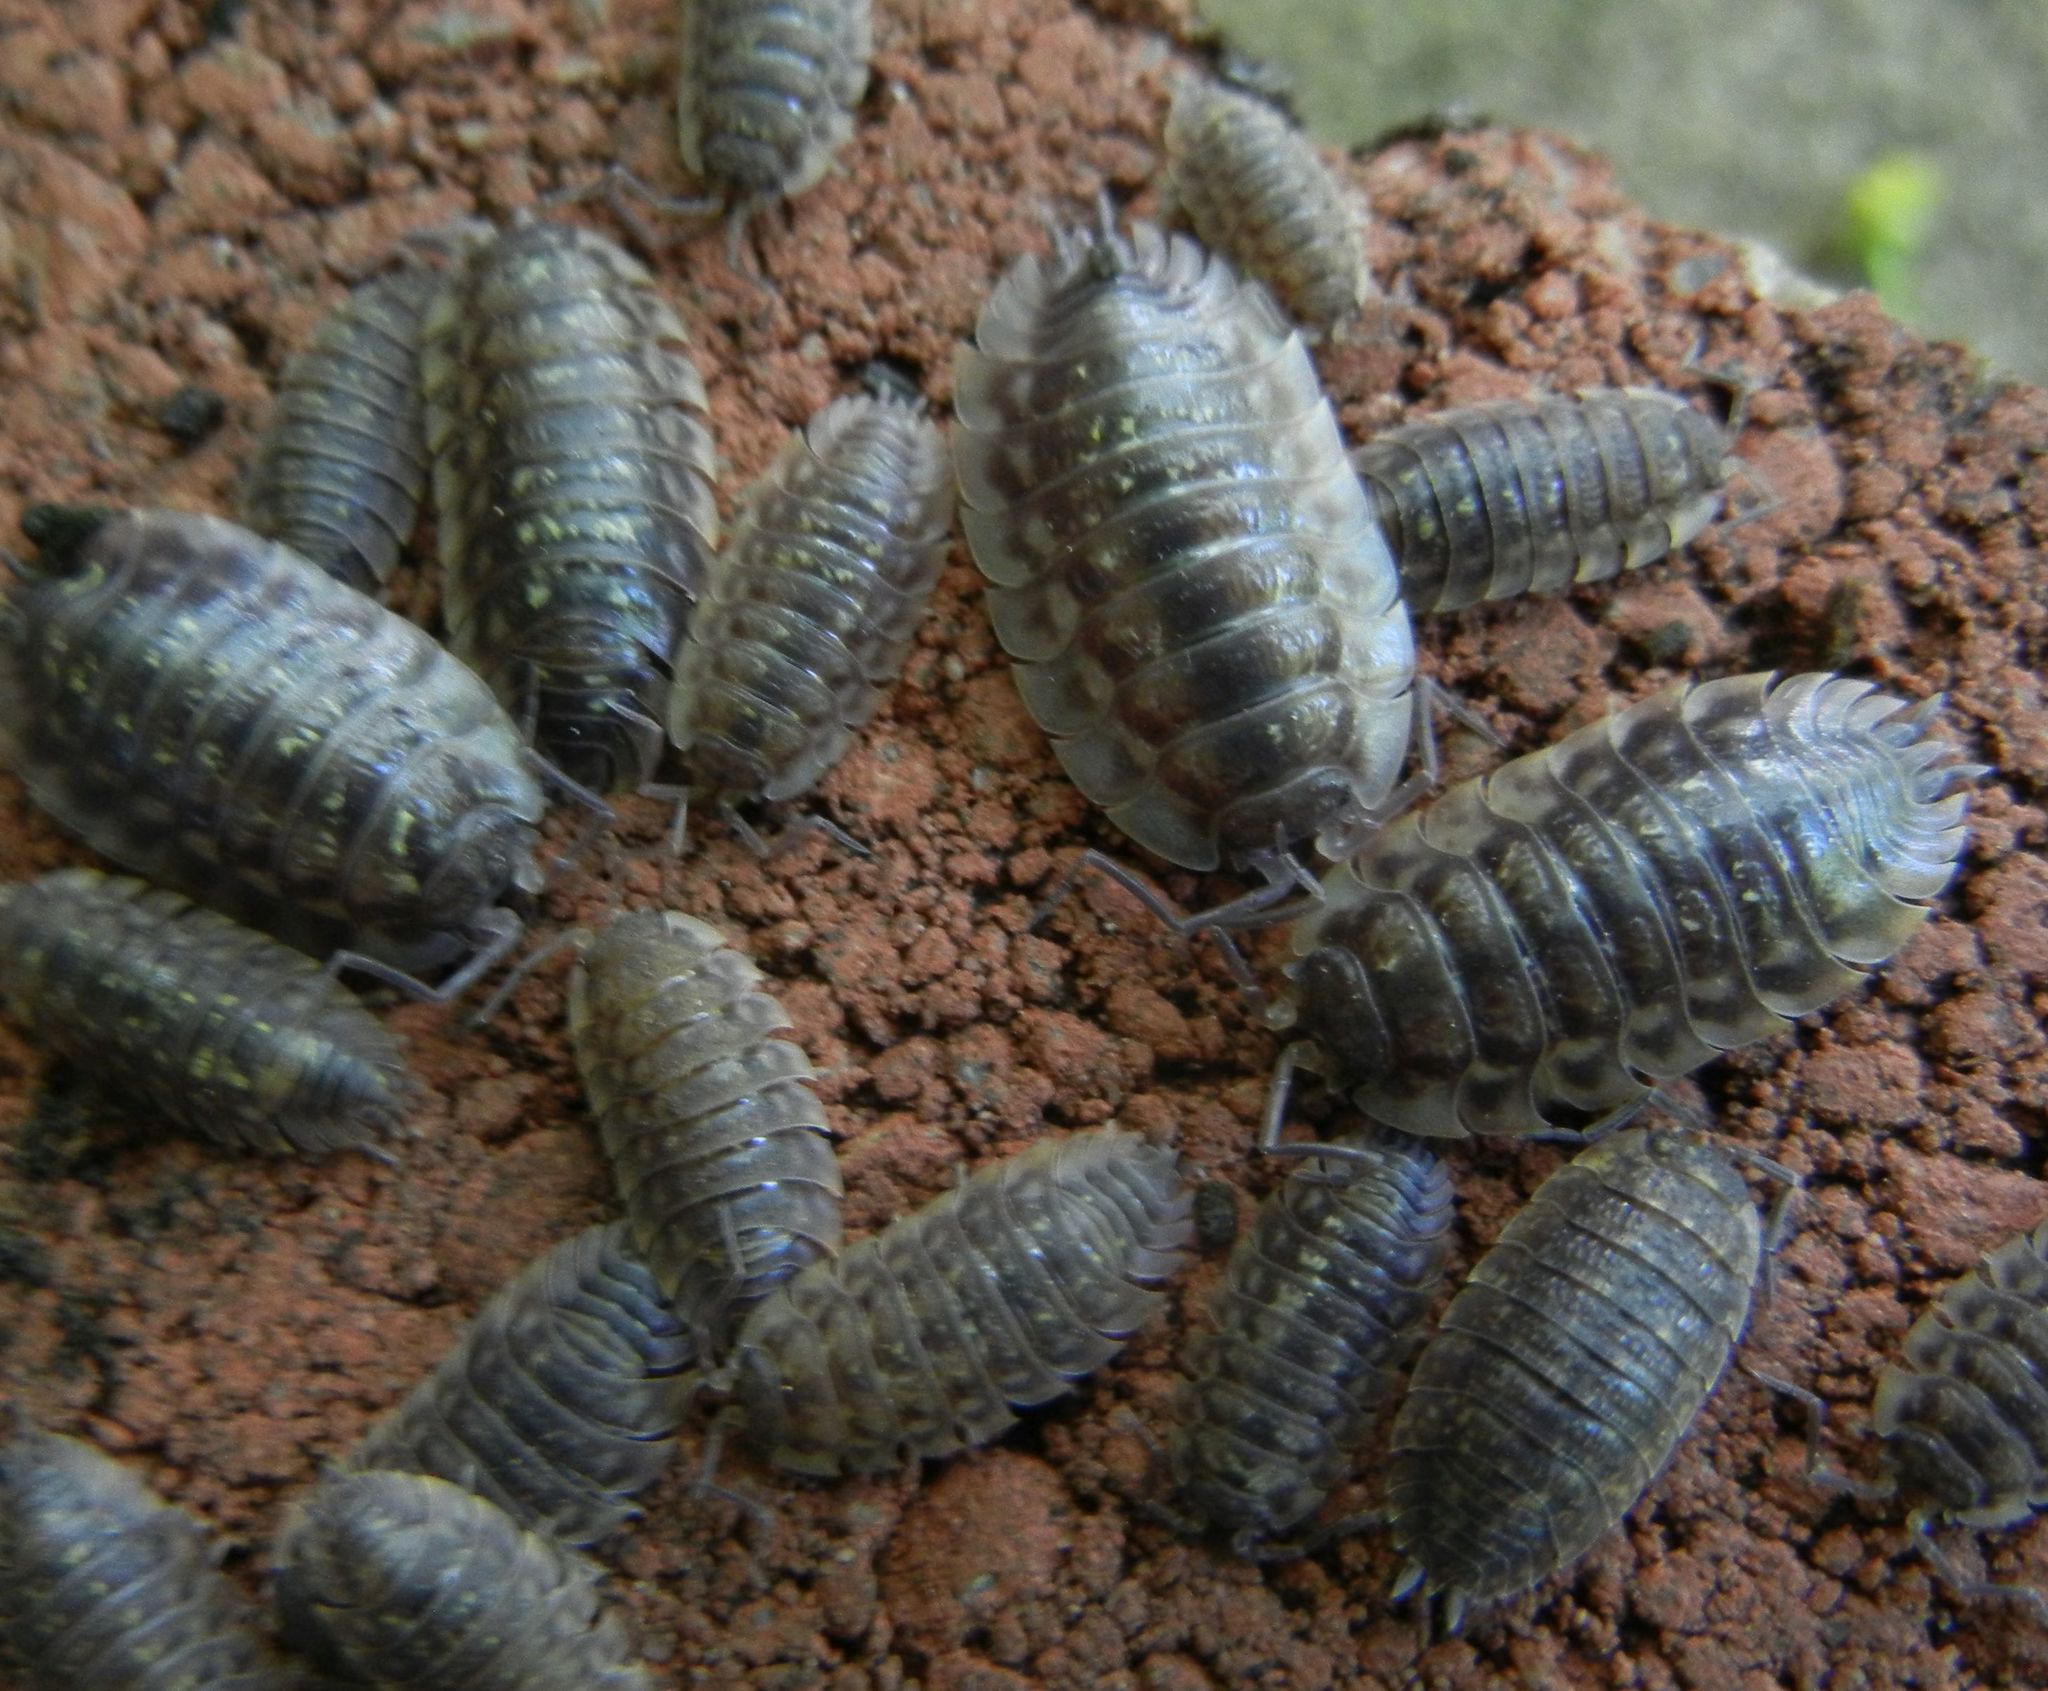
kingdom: Animalia
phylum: Arthropoda
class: Malacostraca
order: Isopoda
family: Oniscidae
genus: Oniscus
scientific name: Oniscus asellus
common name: Common shiny woodlouse
